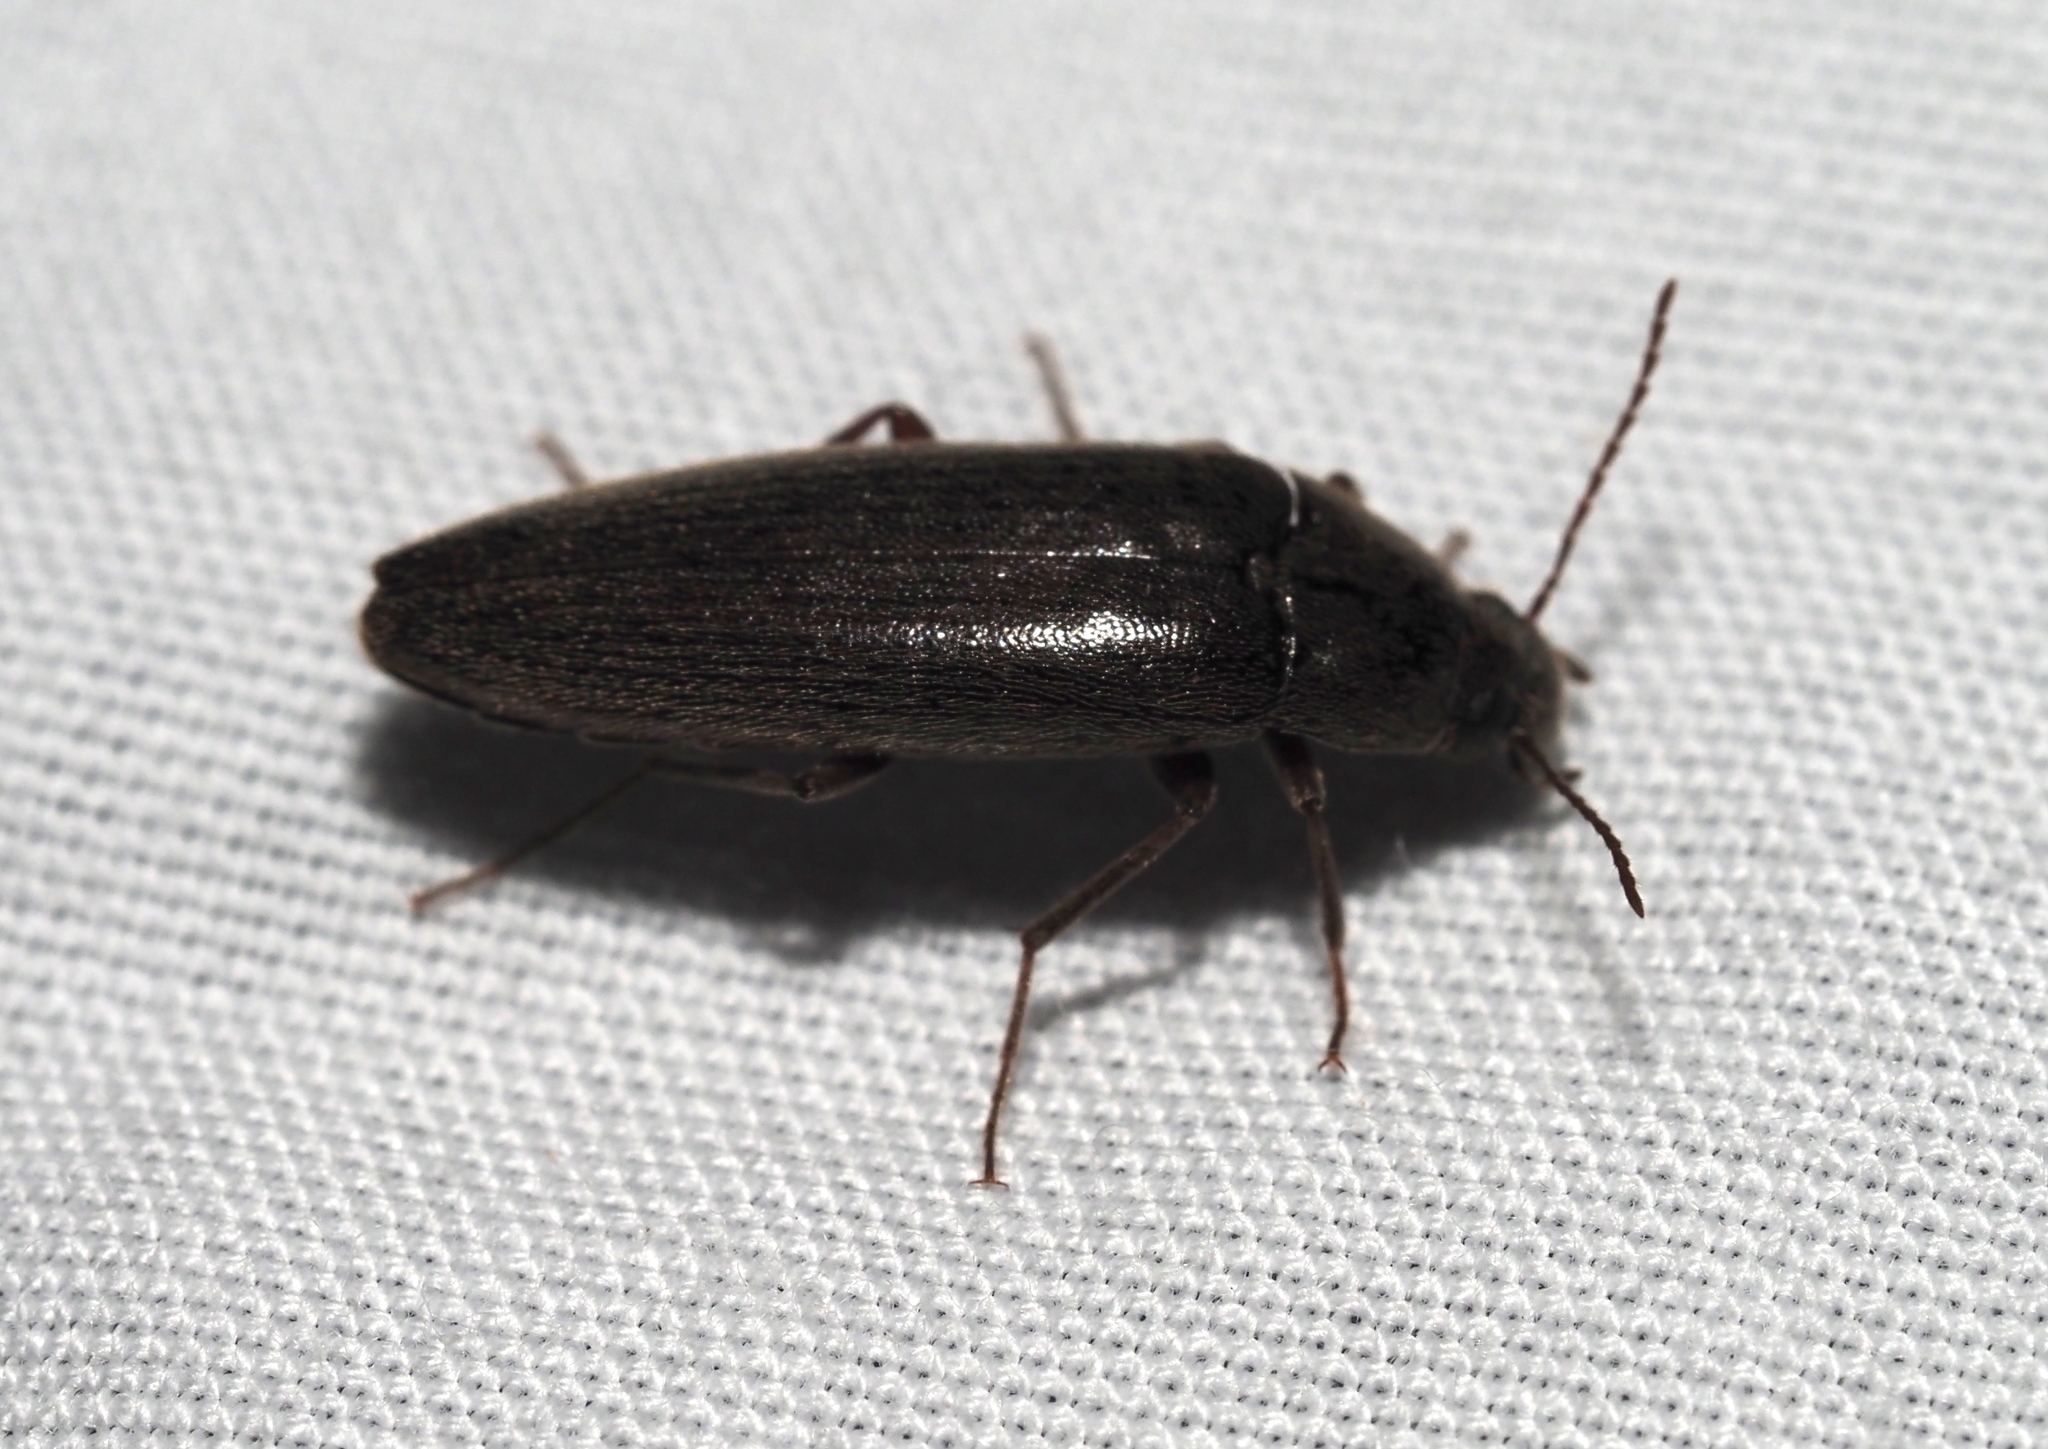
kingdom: Animalia
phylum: Arthropoda
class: Insecta
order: Coleoptera
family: Synchroidae
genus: Synchroa
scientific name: Synchroa punctata
